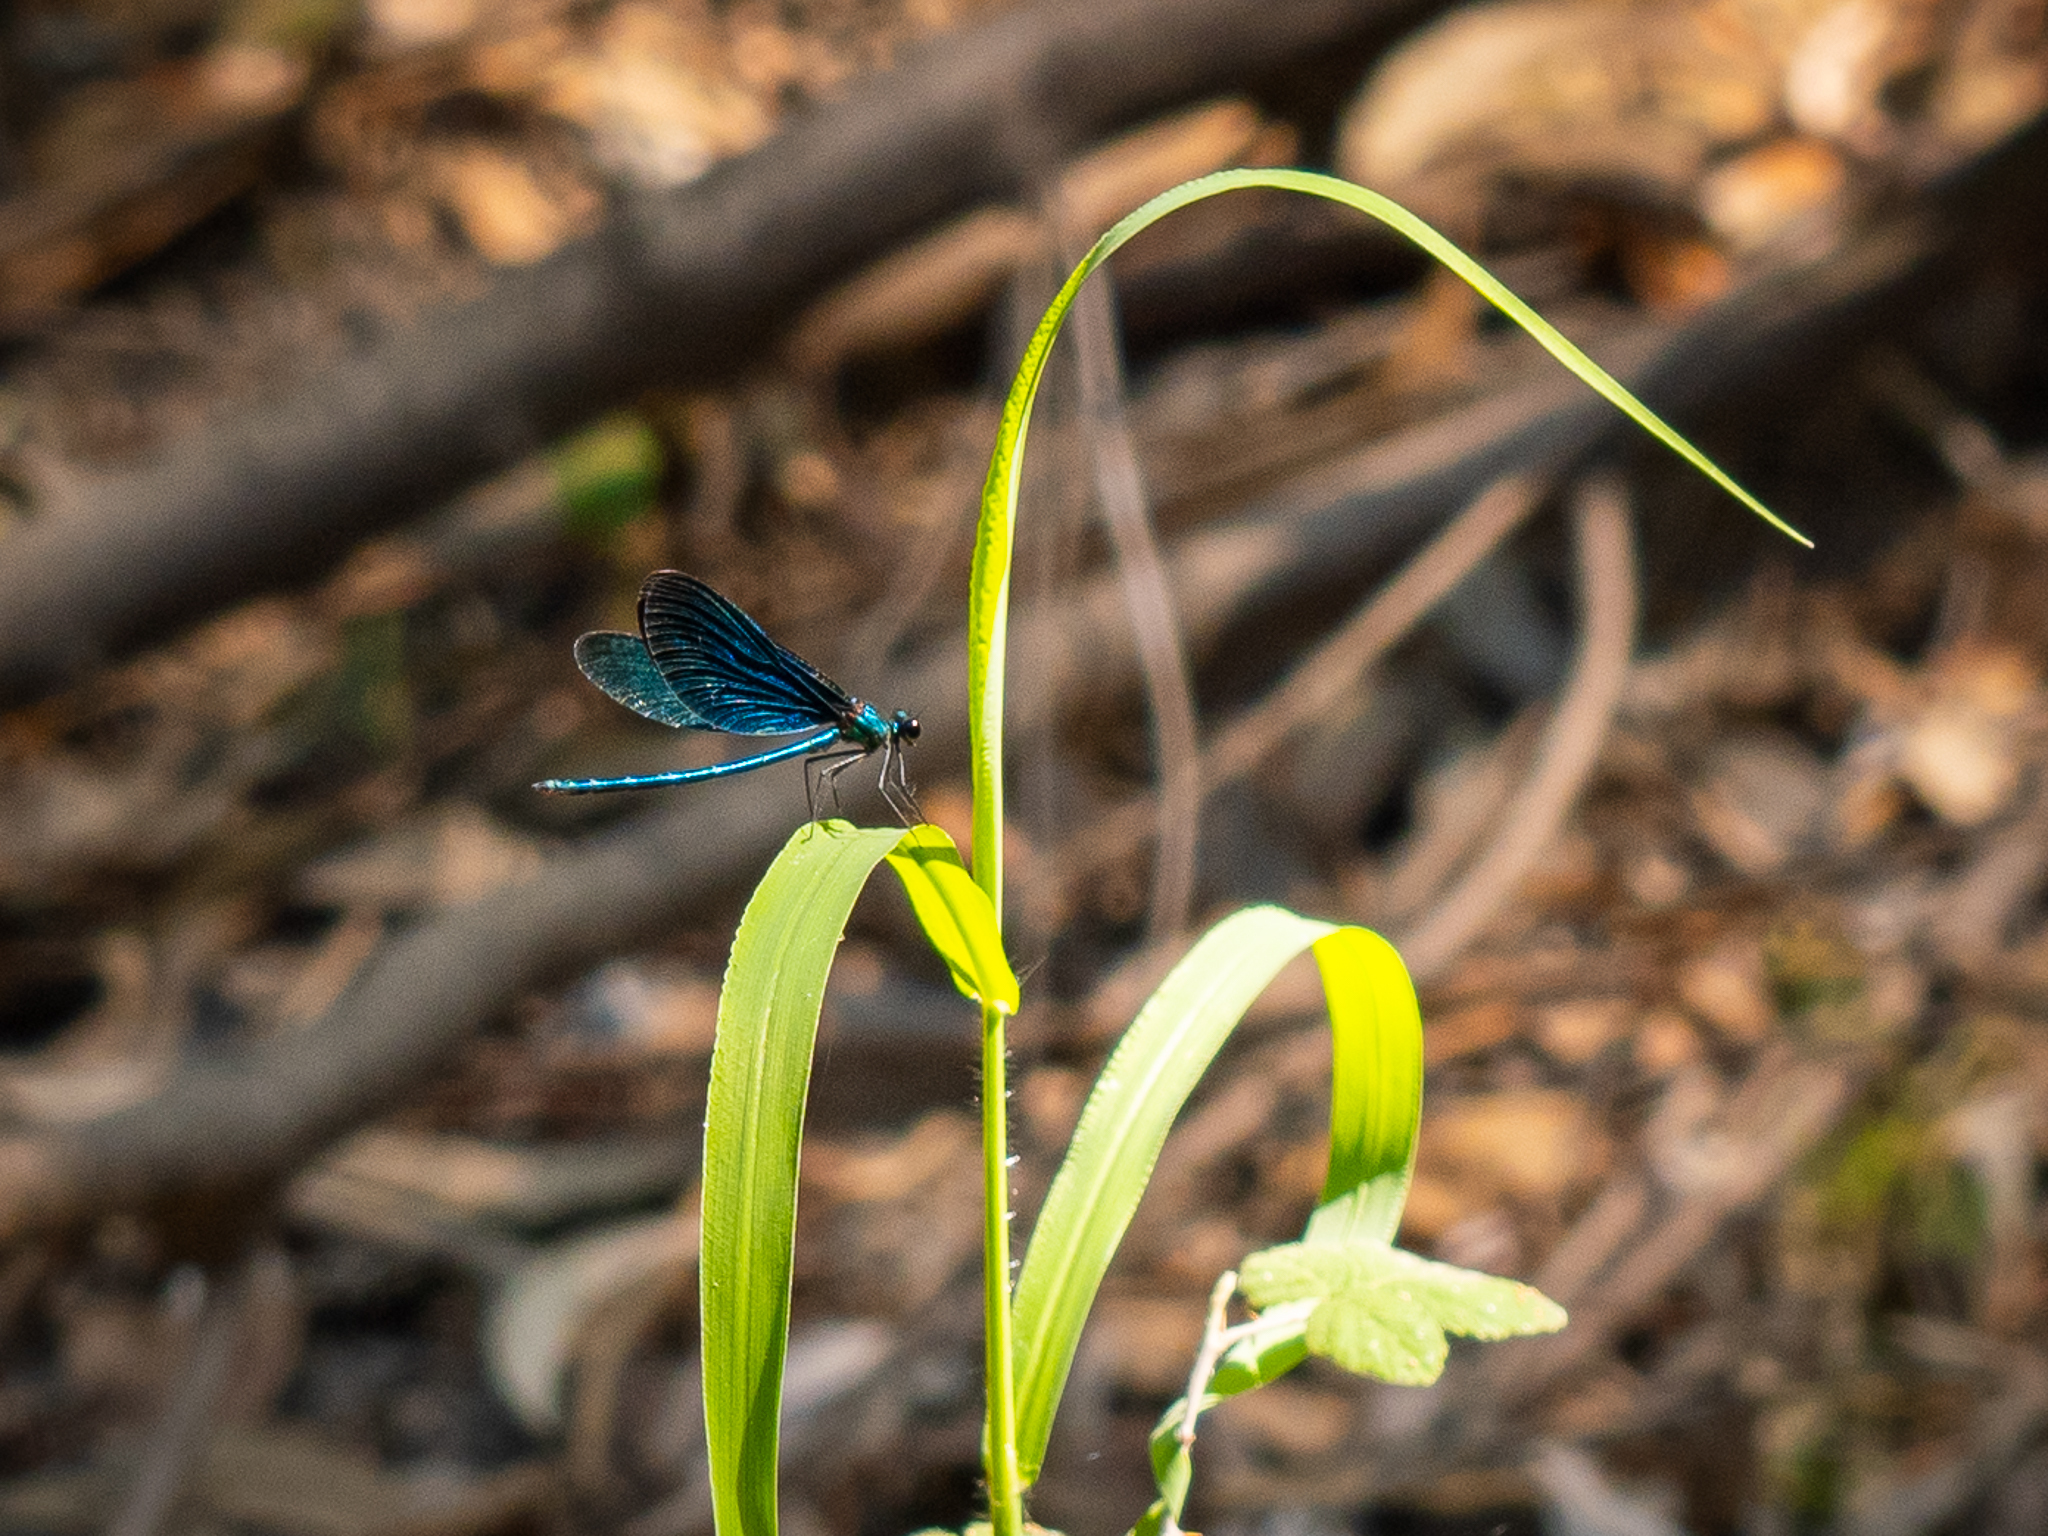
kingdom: Animalia
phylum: Arthropoda
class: Insecta
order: Odonata
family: Calopterygidae
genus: Calopteryx
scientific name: Calopteryx virgo
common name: Beautiful demoiselle
